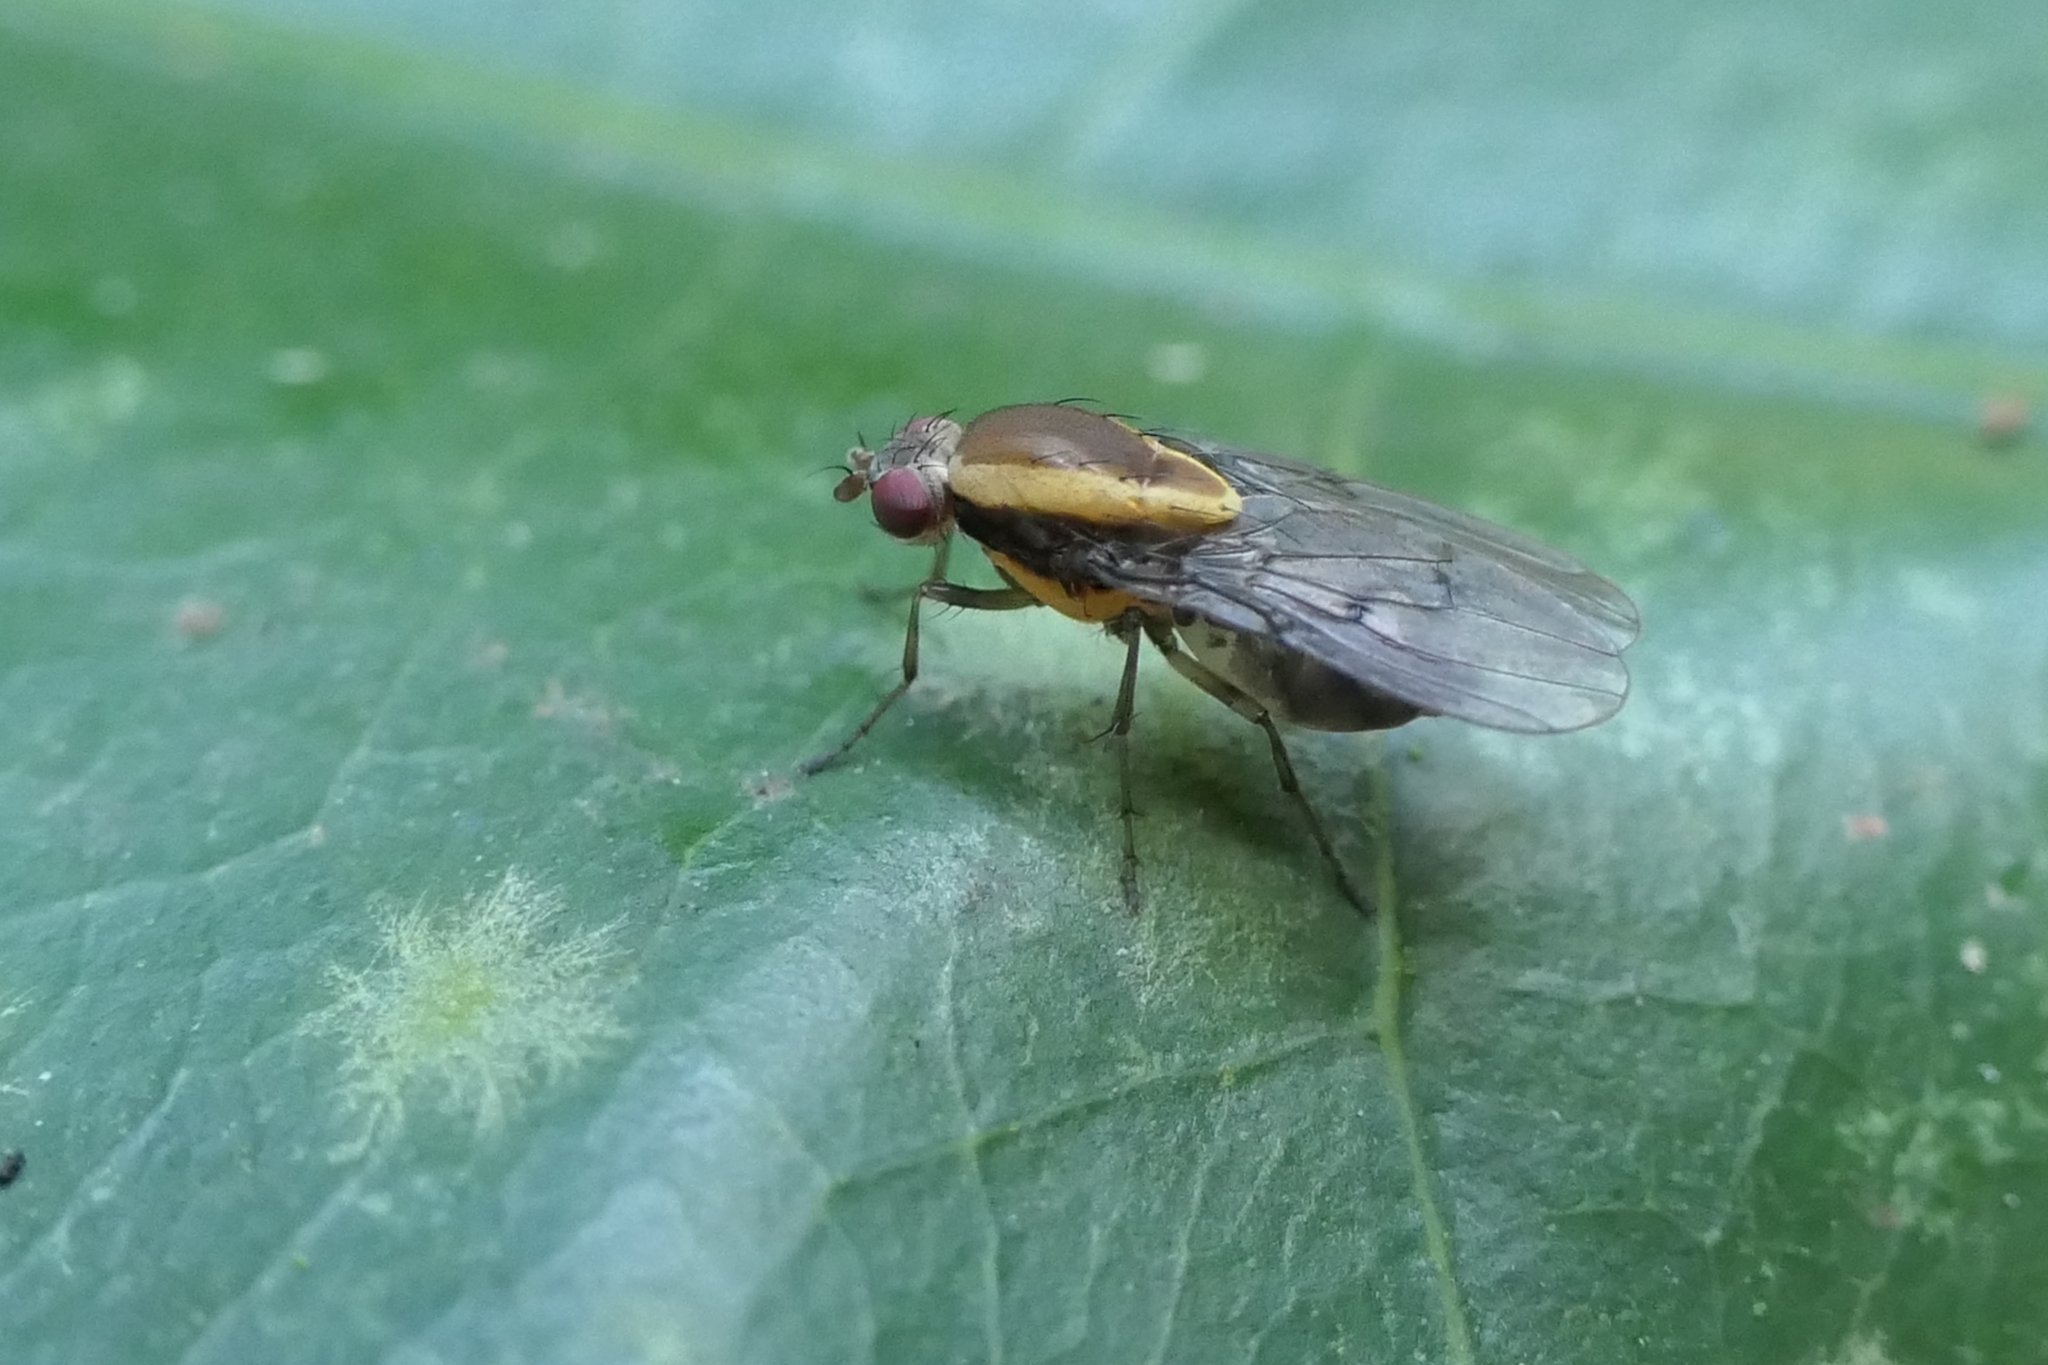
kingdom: Animalia
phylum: Arthropoda
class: Insecta
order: Diptera
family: Heleomyzidae
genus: Allophylopsis
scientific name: Allophylopsis scutellata
